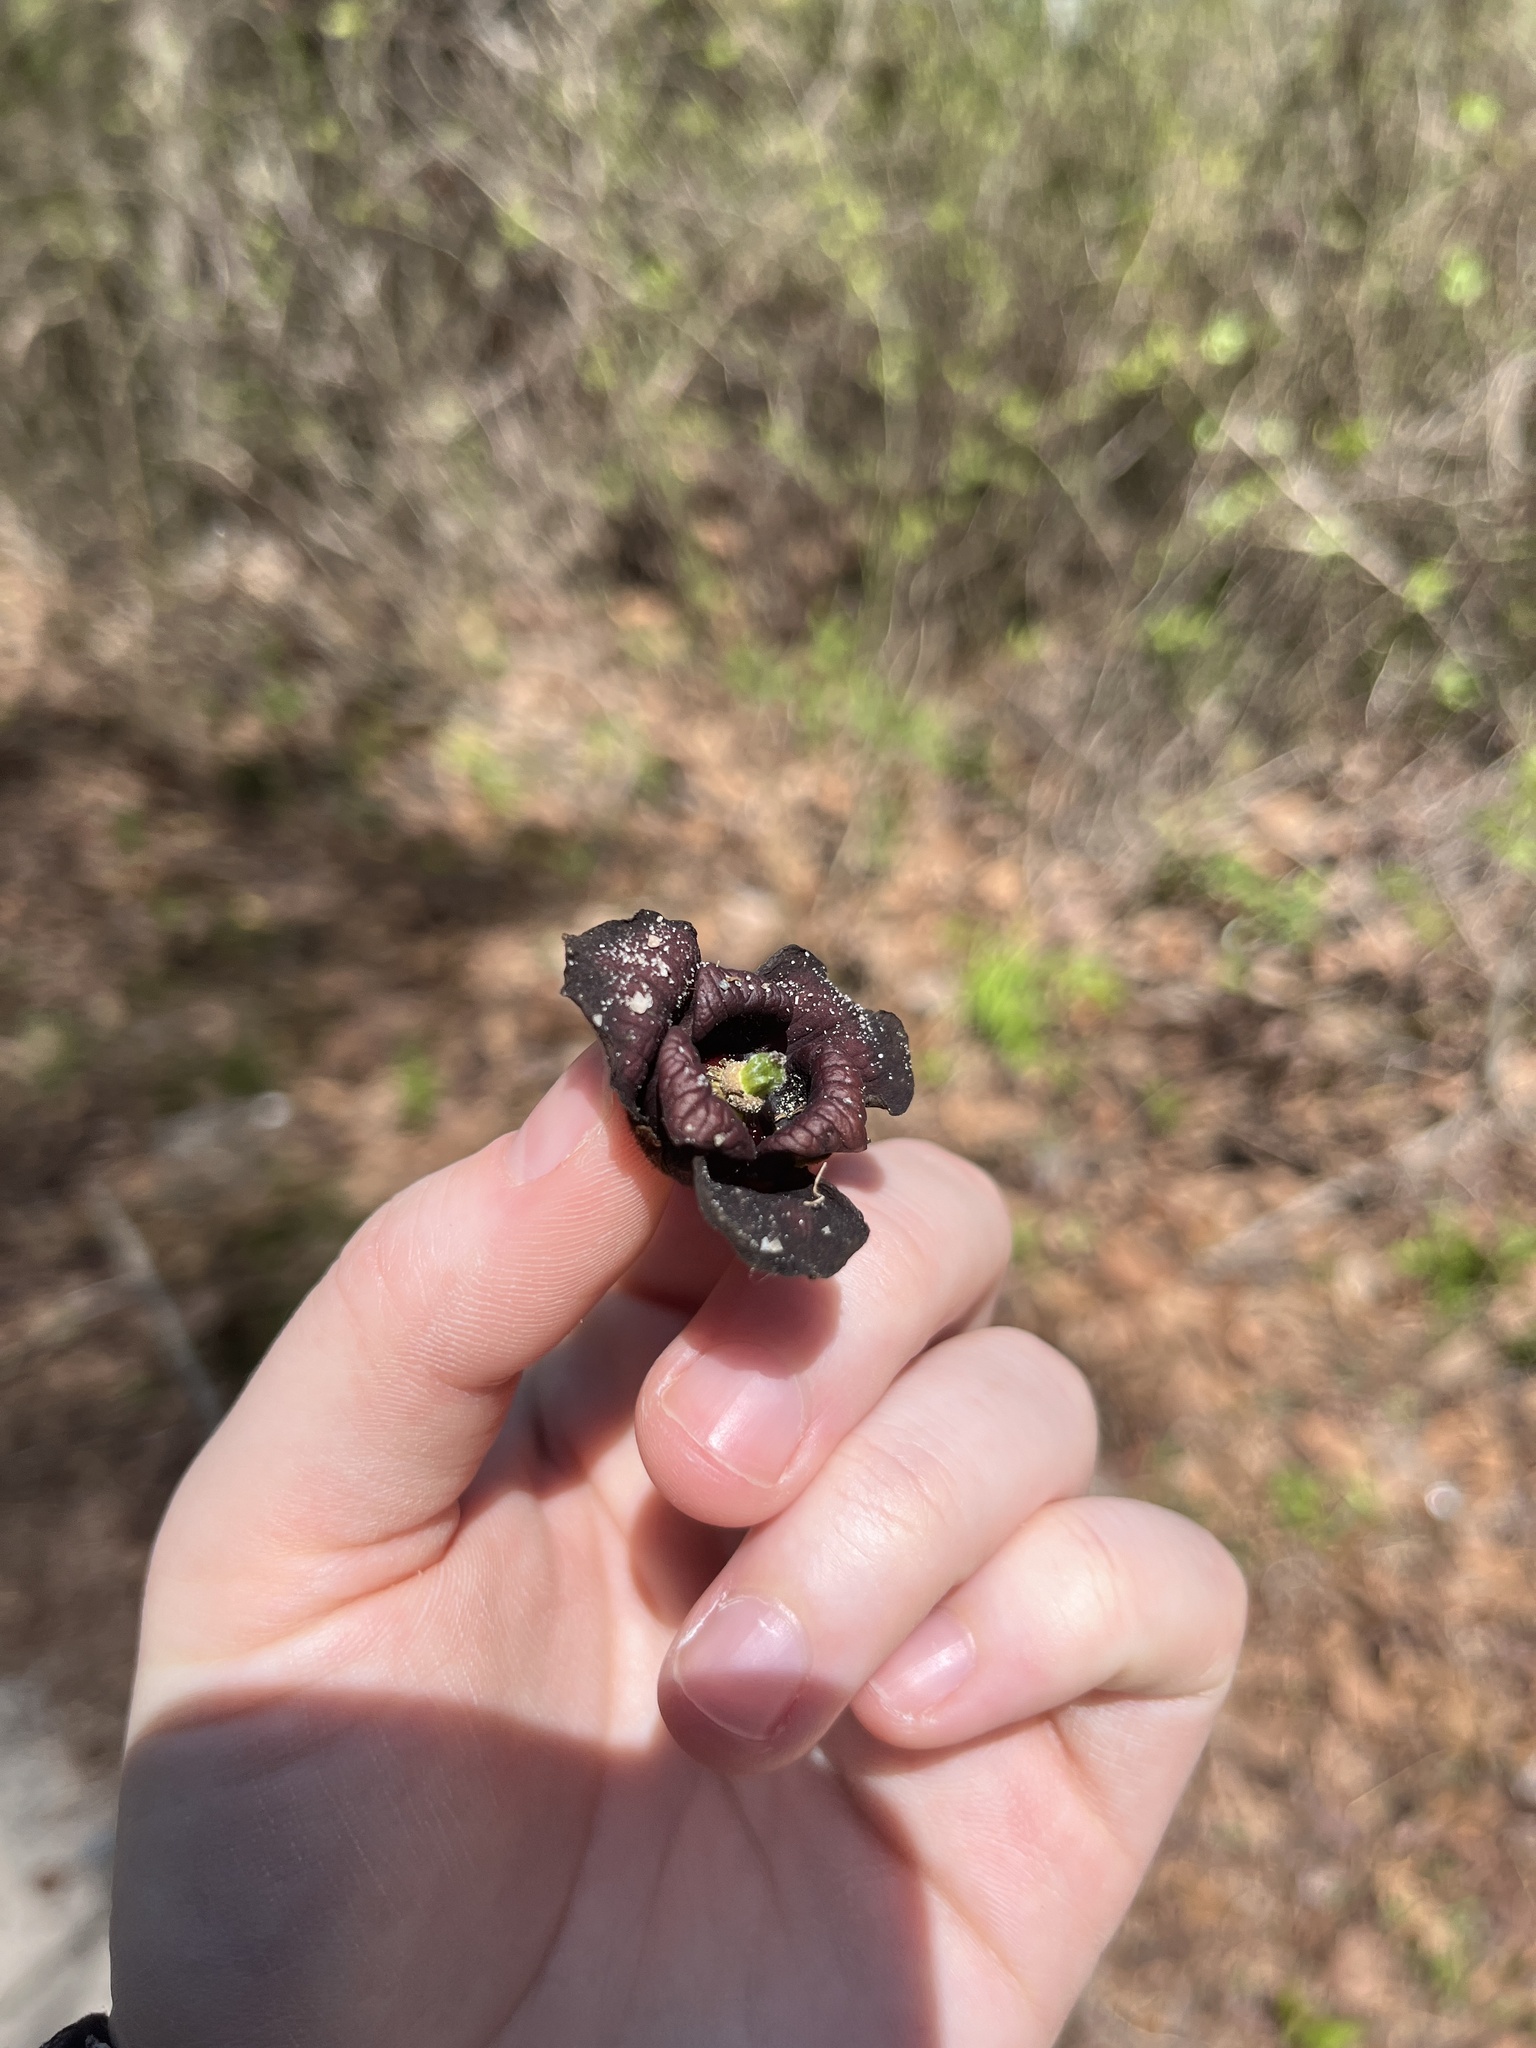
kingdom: Plantae
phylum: Tracheophyta
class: Magnoliopsida
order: Magnoliales
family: Annonaceae
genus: Asimina
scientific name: Asimina triloba
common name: Dog-banana
